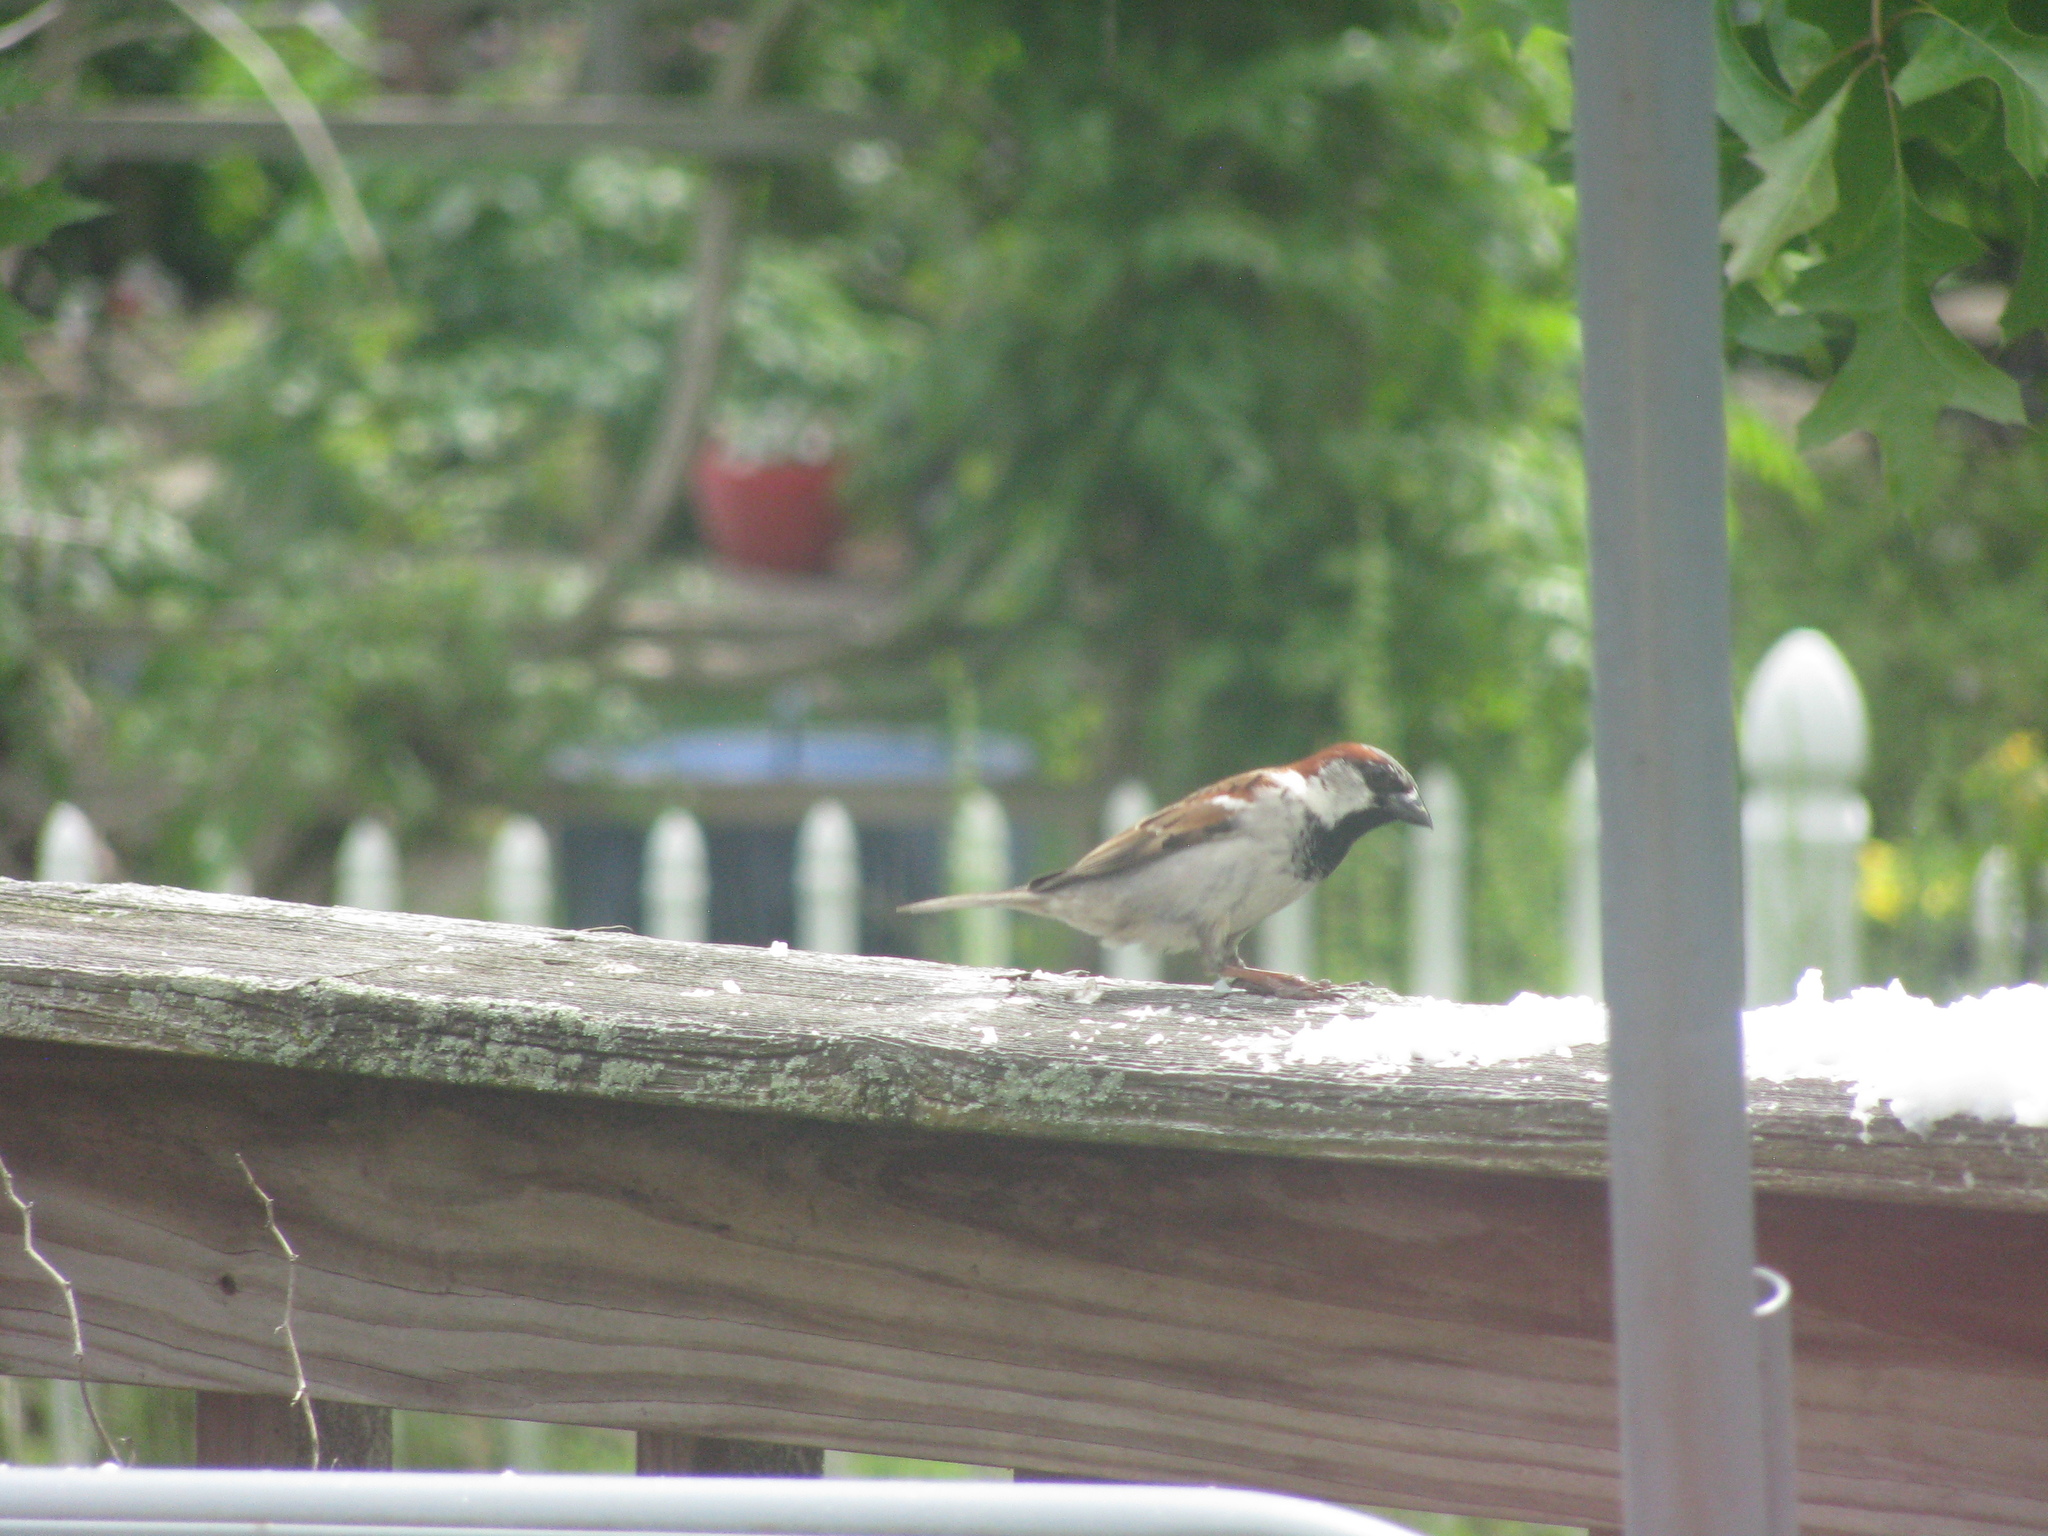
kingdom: Animalia
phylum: Chordata
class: Aves
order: Passeriformes
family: Passeridae
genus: Passer
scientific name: Passer domesticus
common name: House sparrow
